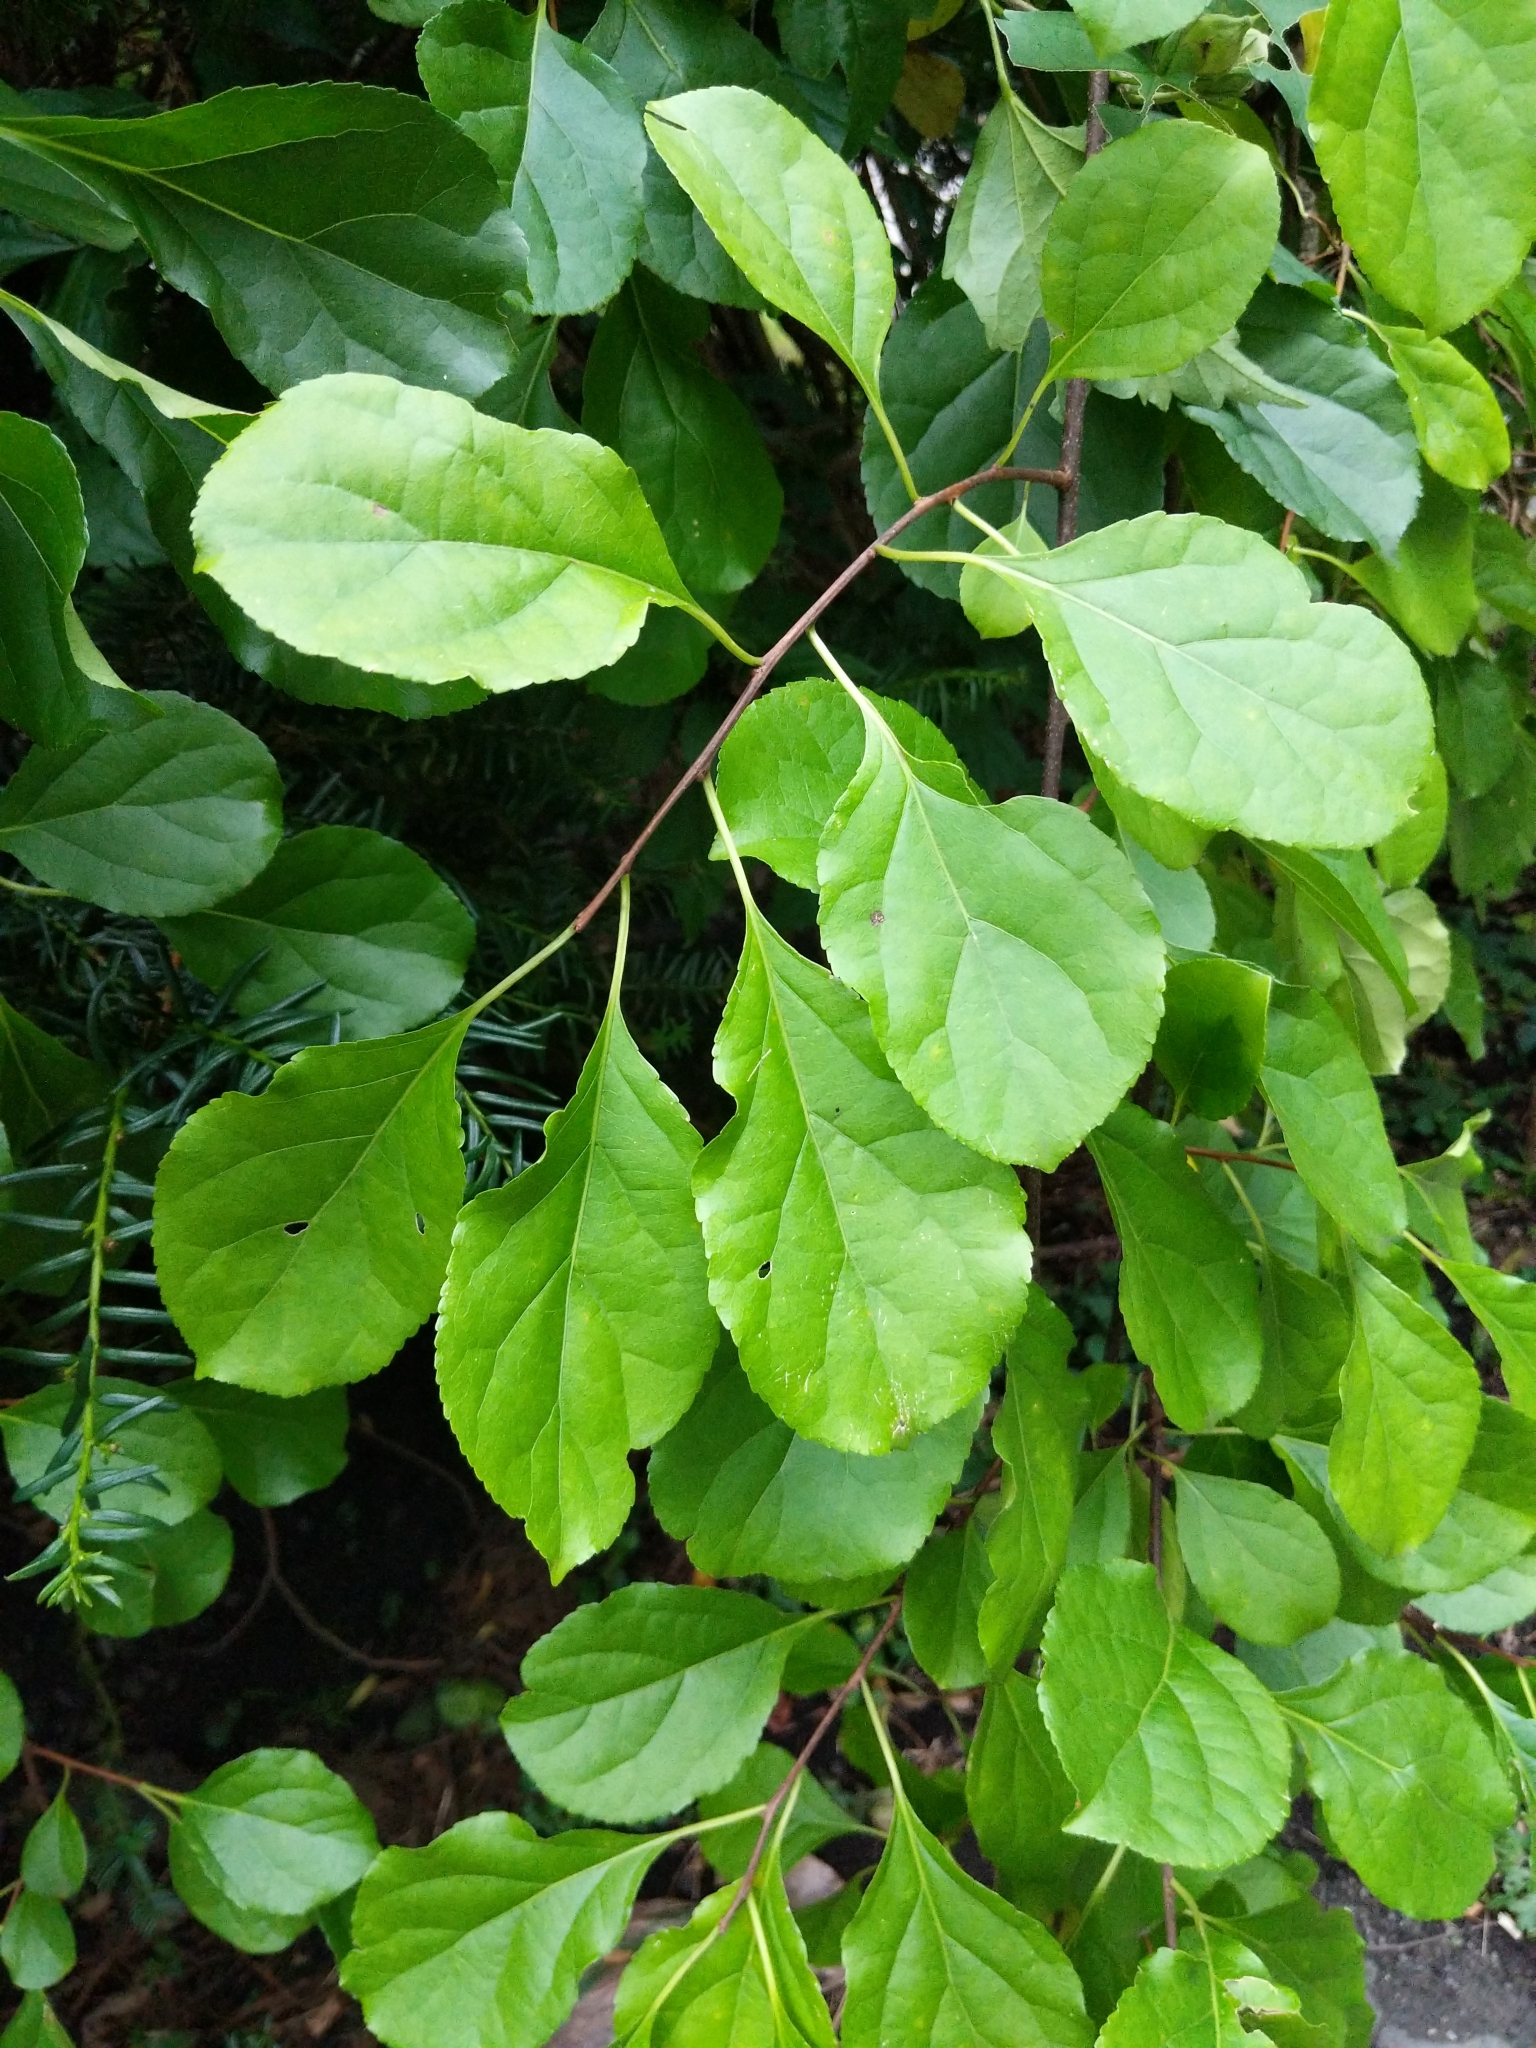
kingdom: Plantae
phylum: Tracheophyta
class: Magnoliopsida
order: Celastrales
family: Celastraceae
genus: Celastrus
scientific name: Celastrus orbiculatus
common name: Oriental bittersweet
